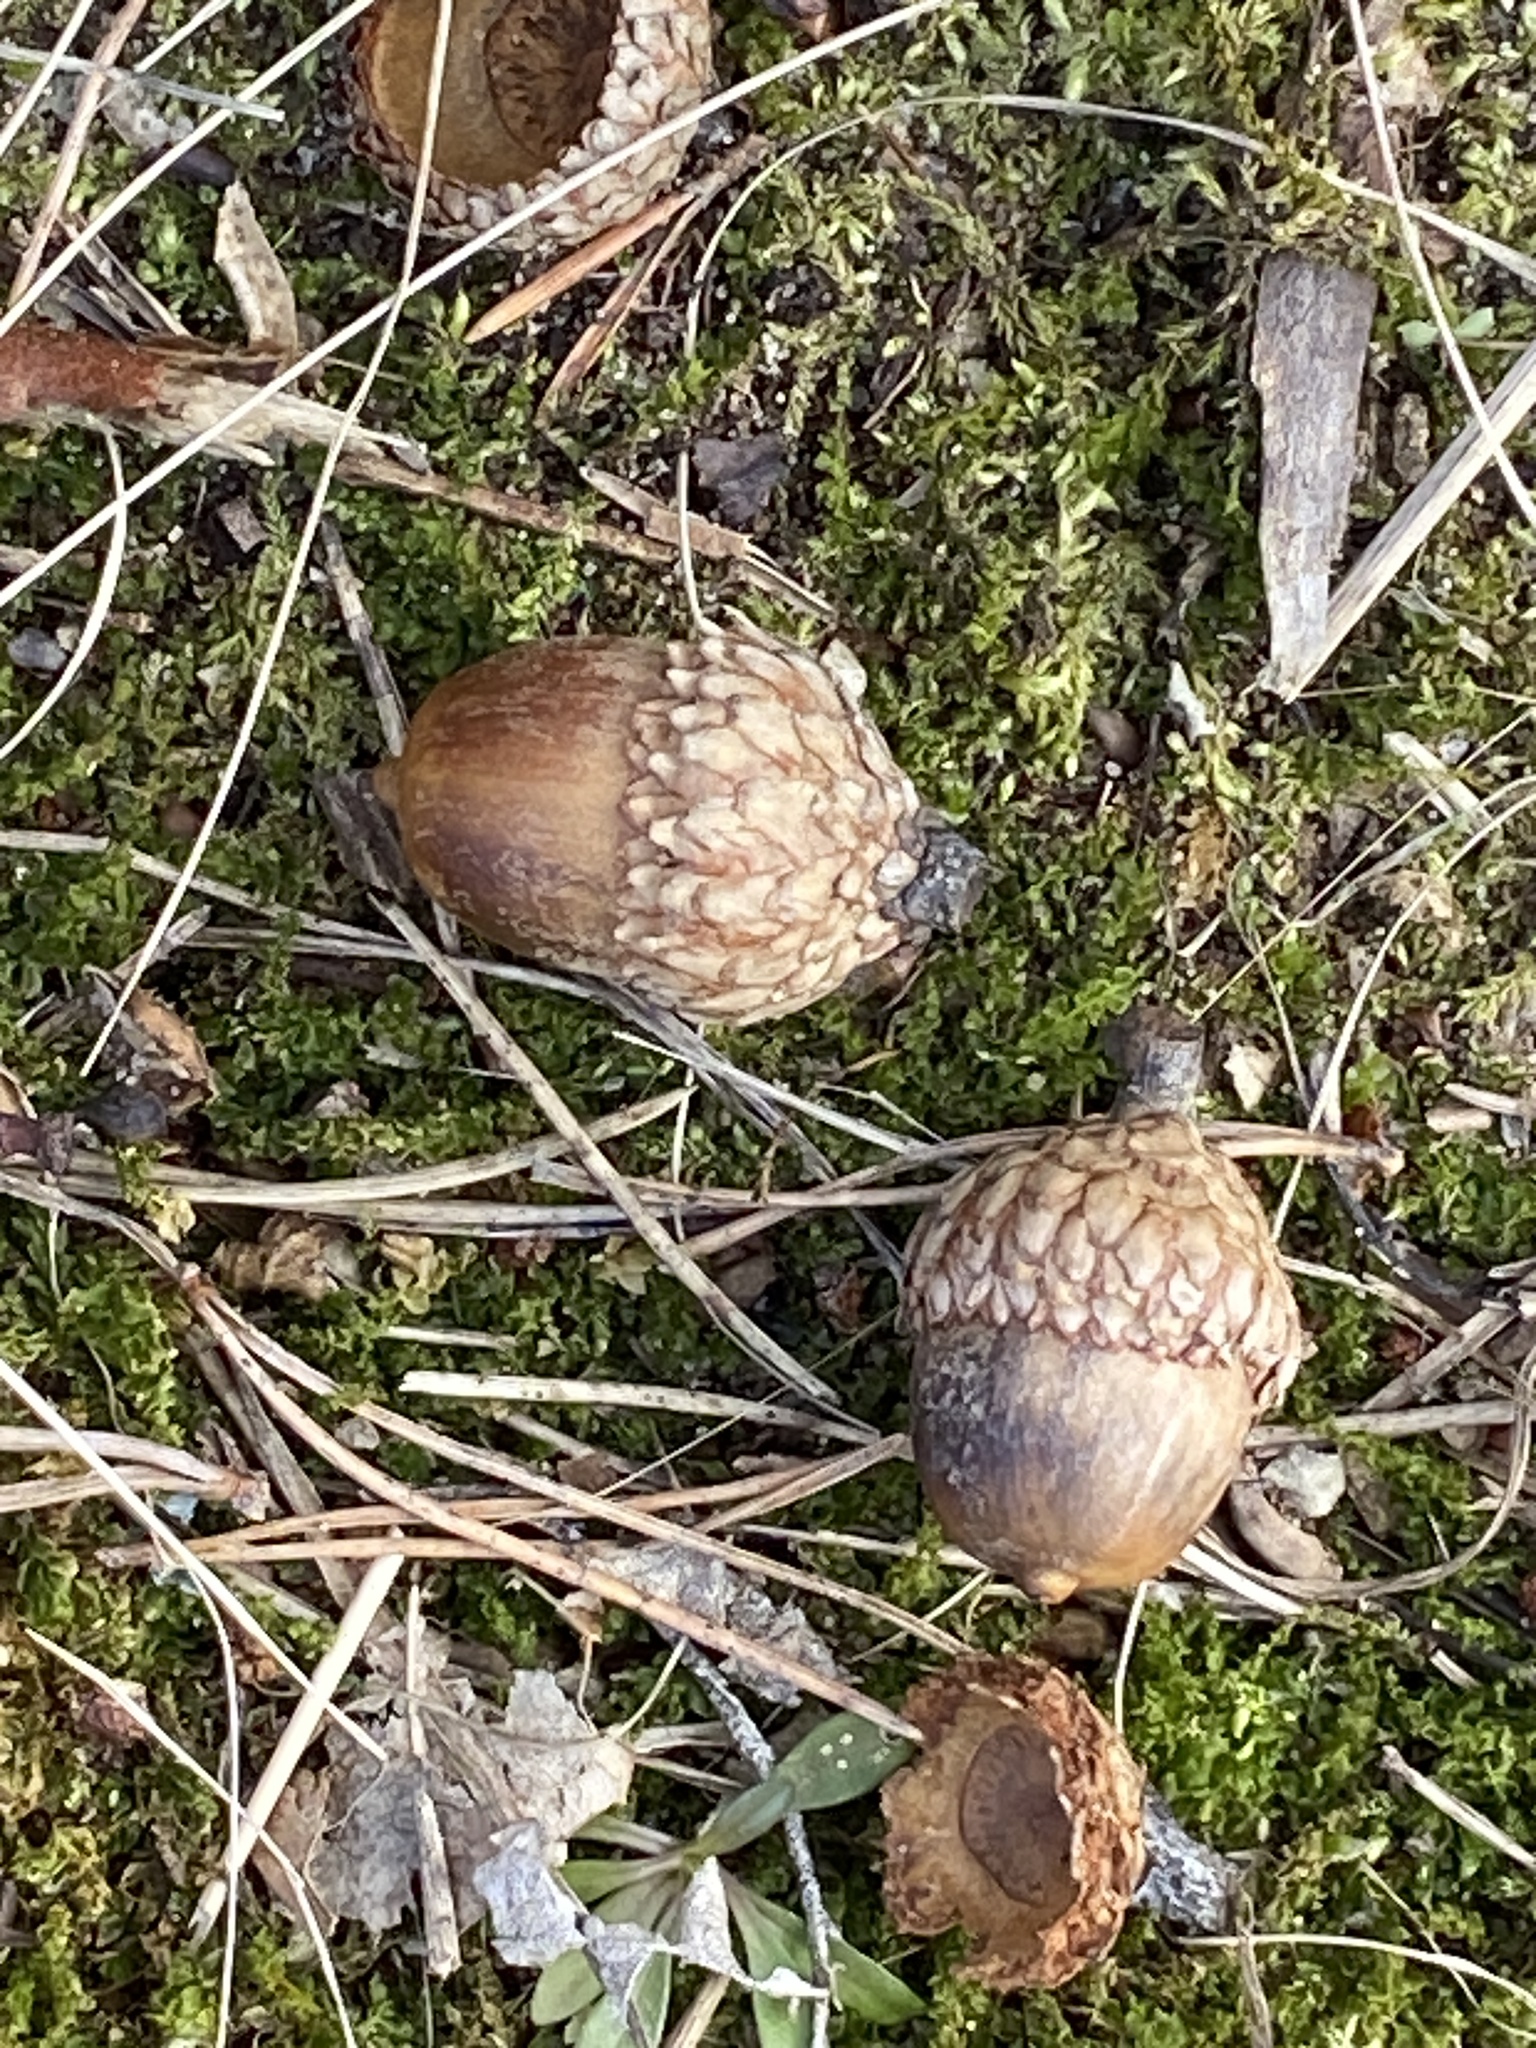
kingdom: Plantae
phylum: Tracheophyta
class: Magnoliopsida
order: Fagales
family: Fagaceae
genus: Quercus
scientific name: Quercus velutina
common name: Black oak
